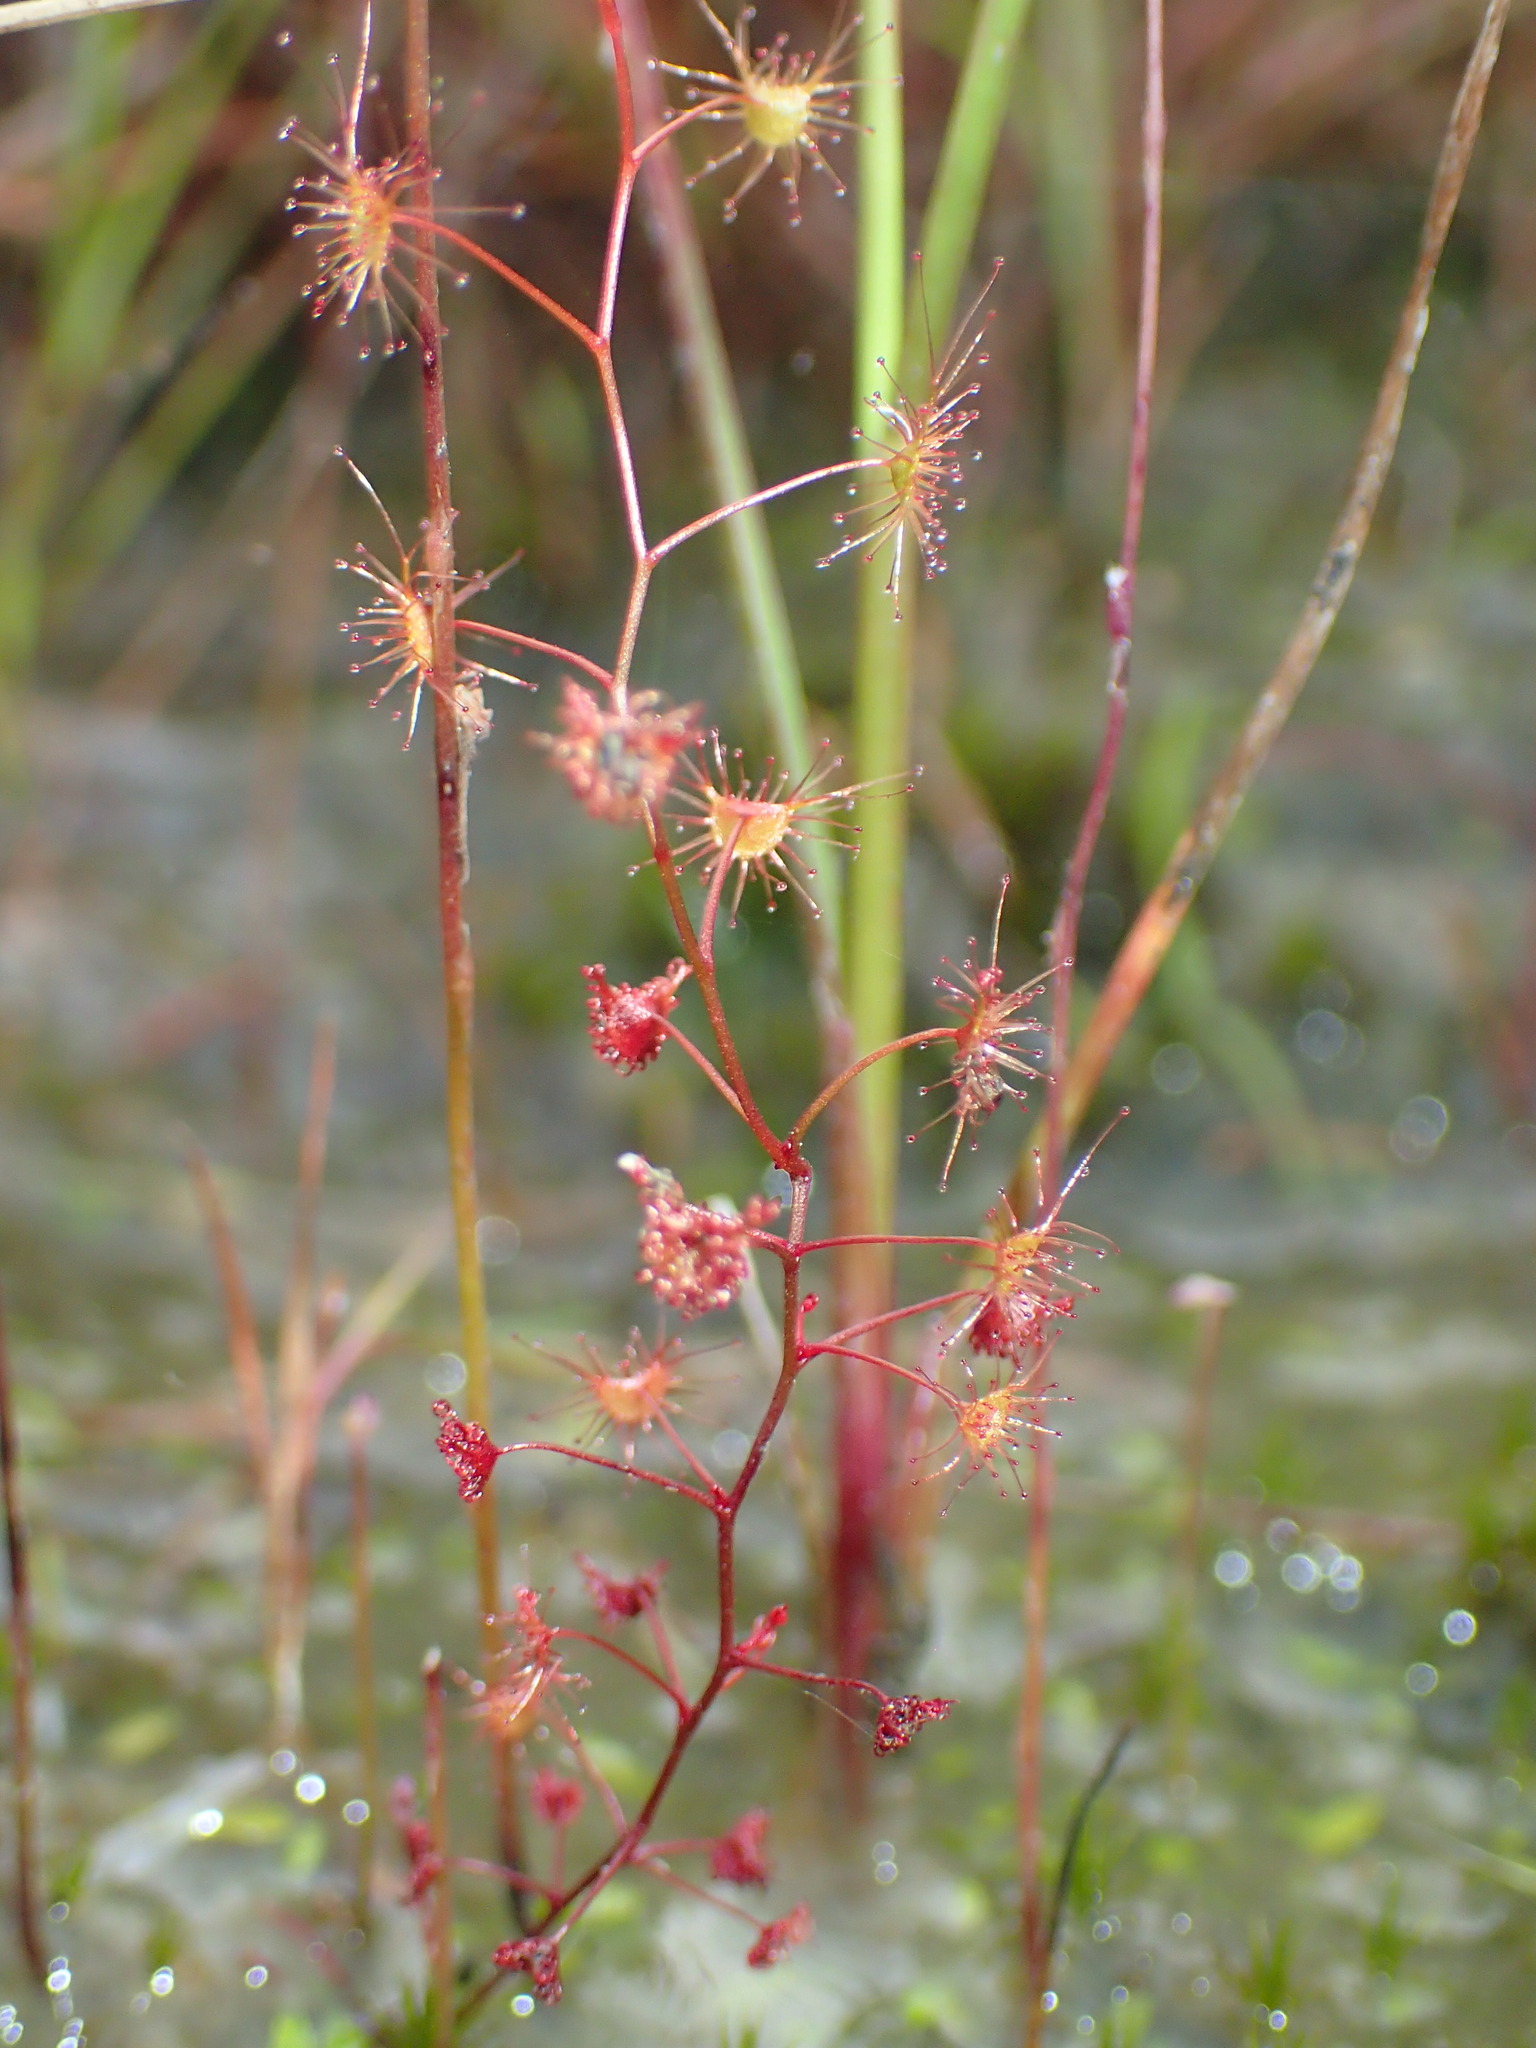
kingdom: Plantae
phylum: Tracheophyta
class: Magnoliopsida
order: Caryophyllales
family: Droseraceae
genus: Drosera
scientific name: Drosera peltata
